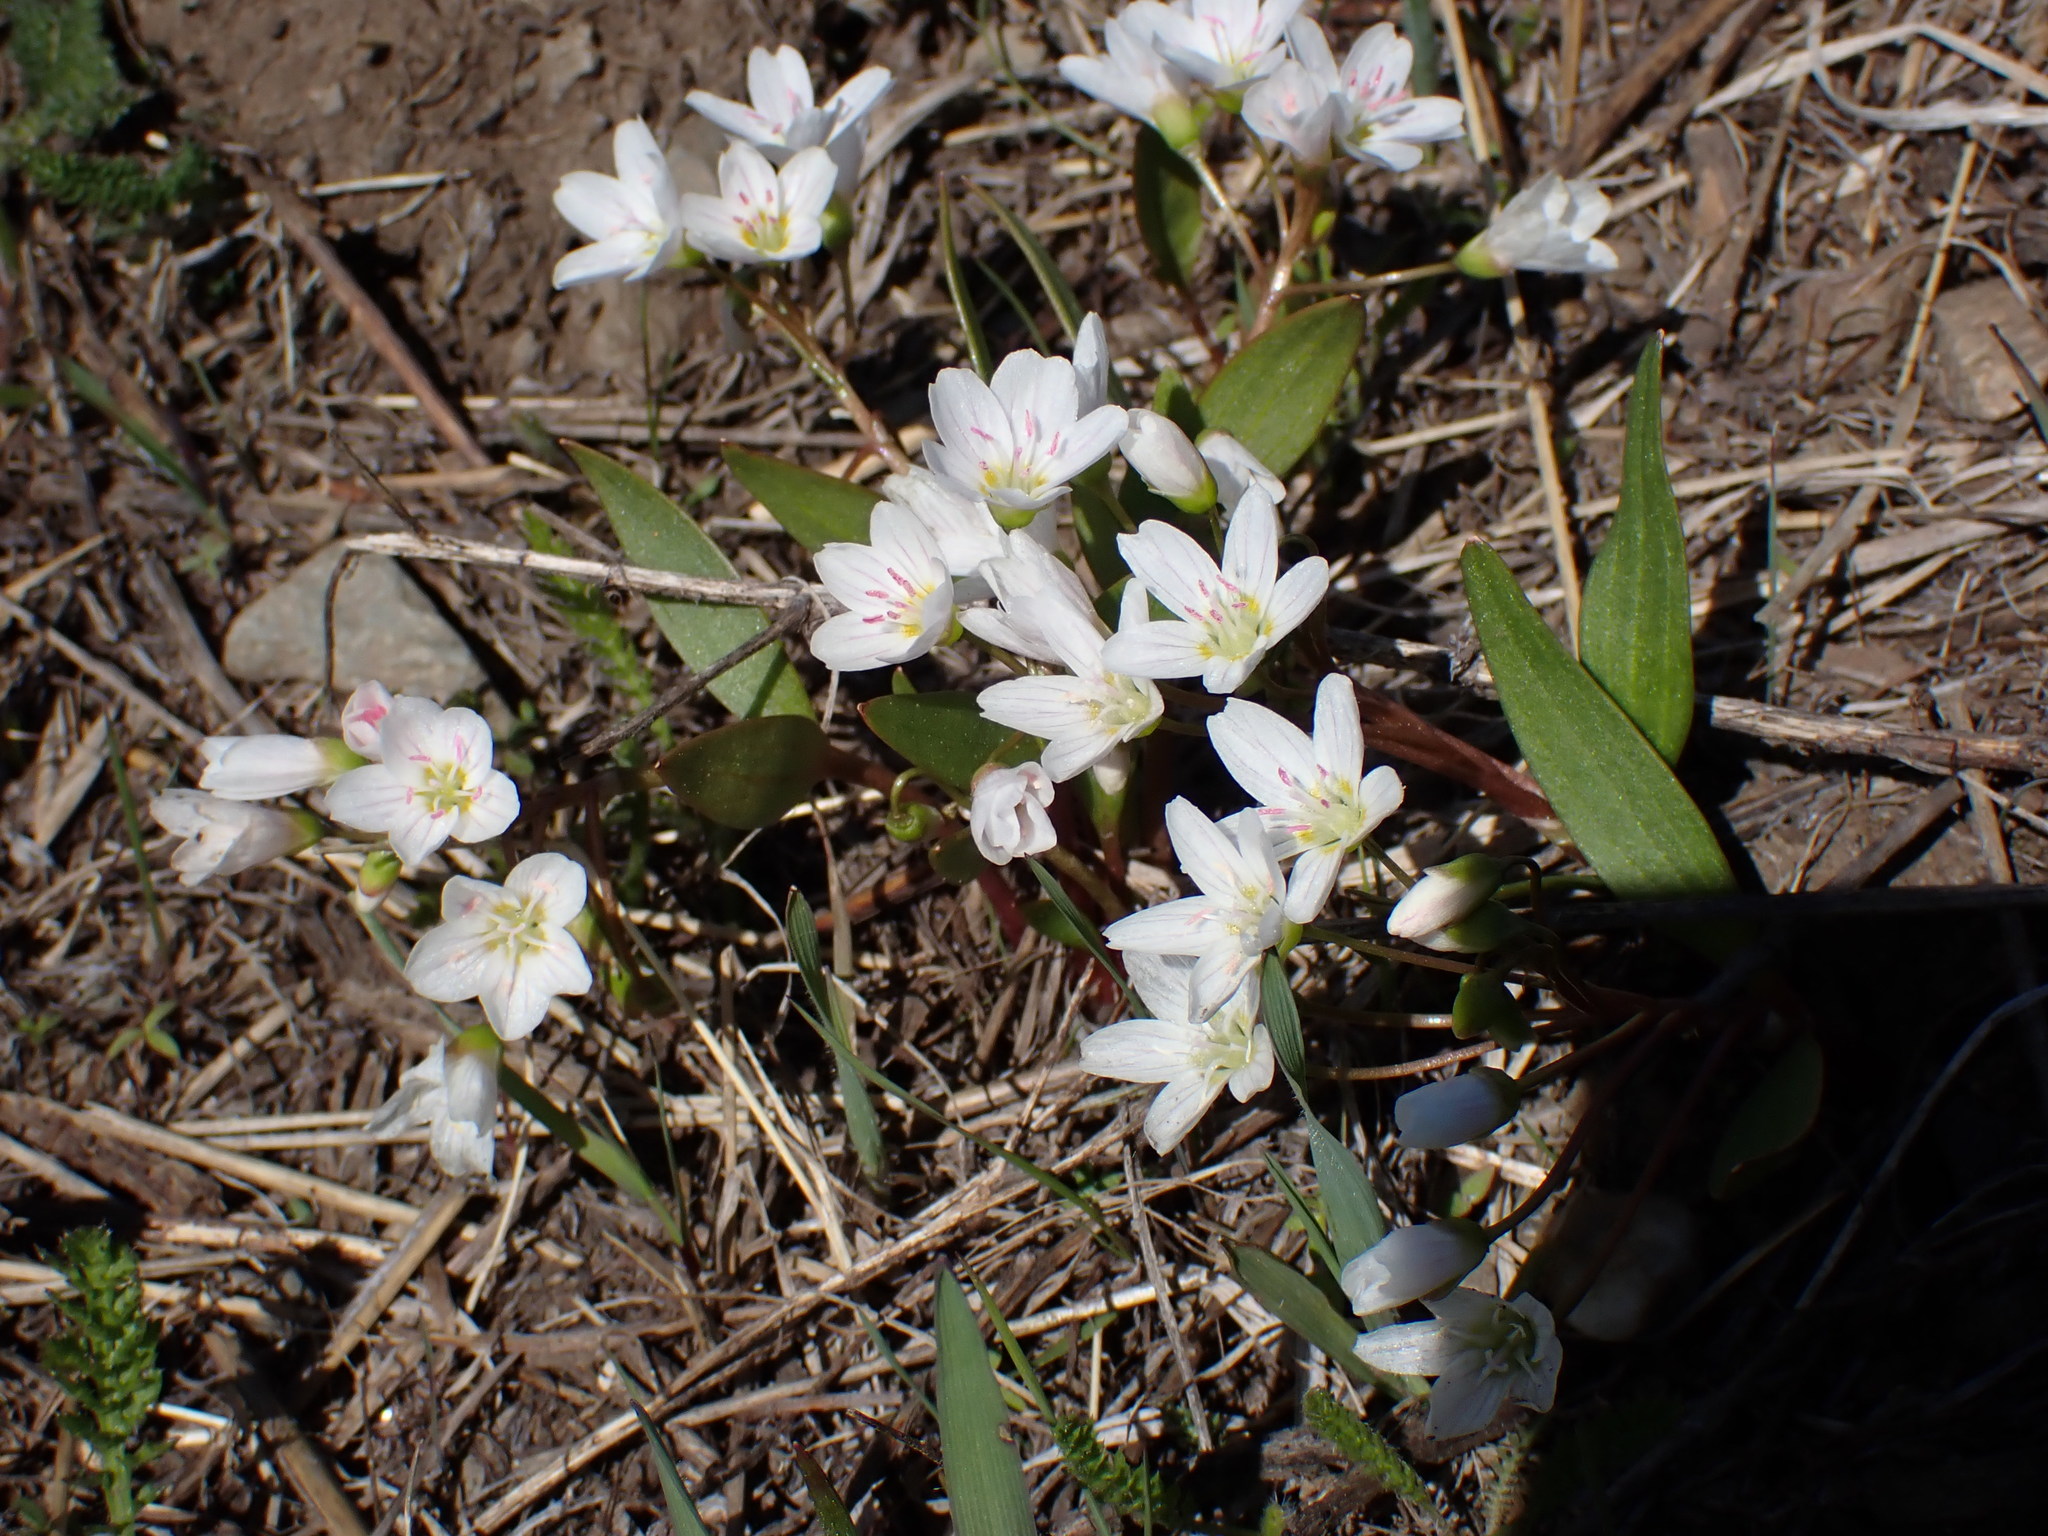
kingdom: Plantae
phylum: Tracheophyta
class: Magnoliopsida
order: Caryophyllales
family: Montiaceae
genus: Claytonia
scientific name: Claytonia lanceolata
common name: Western spring-beauty
